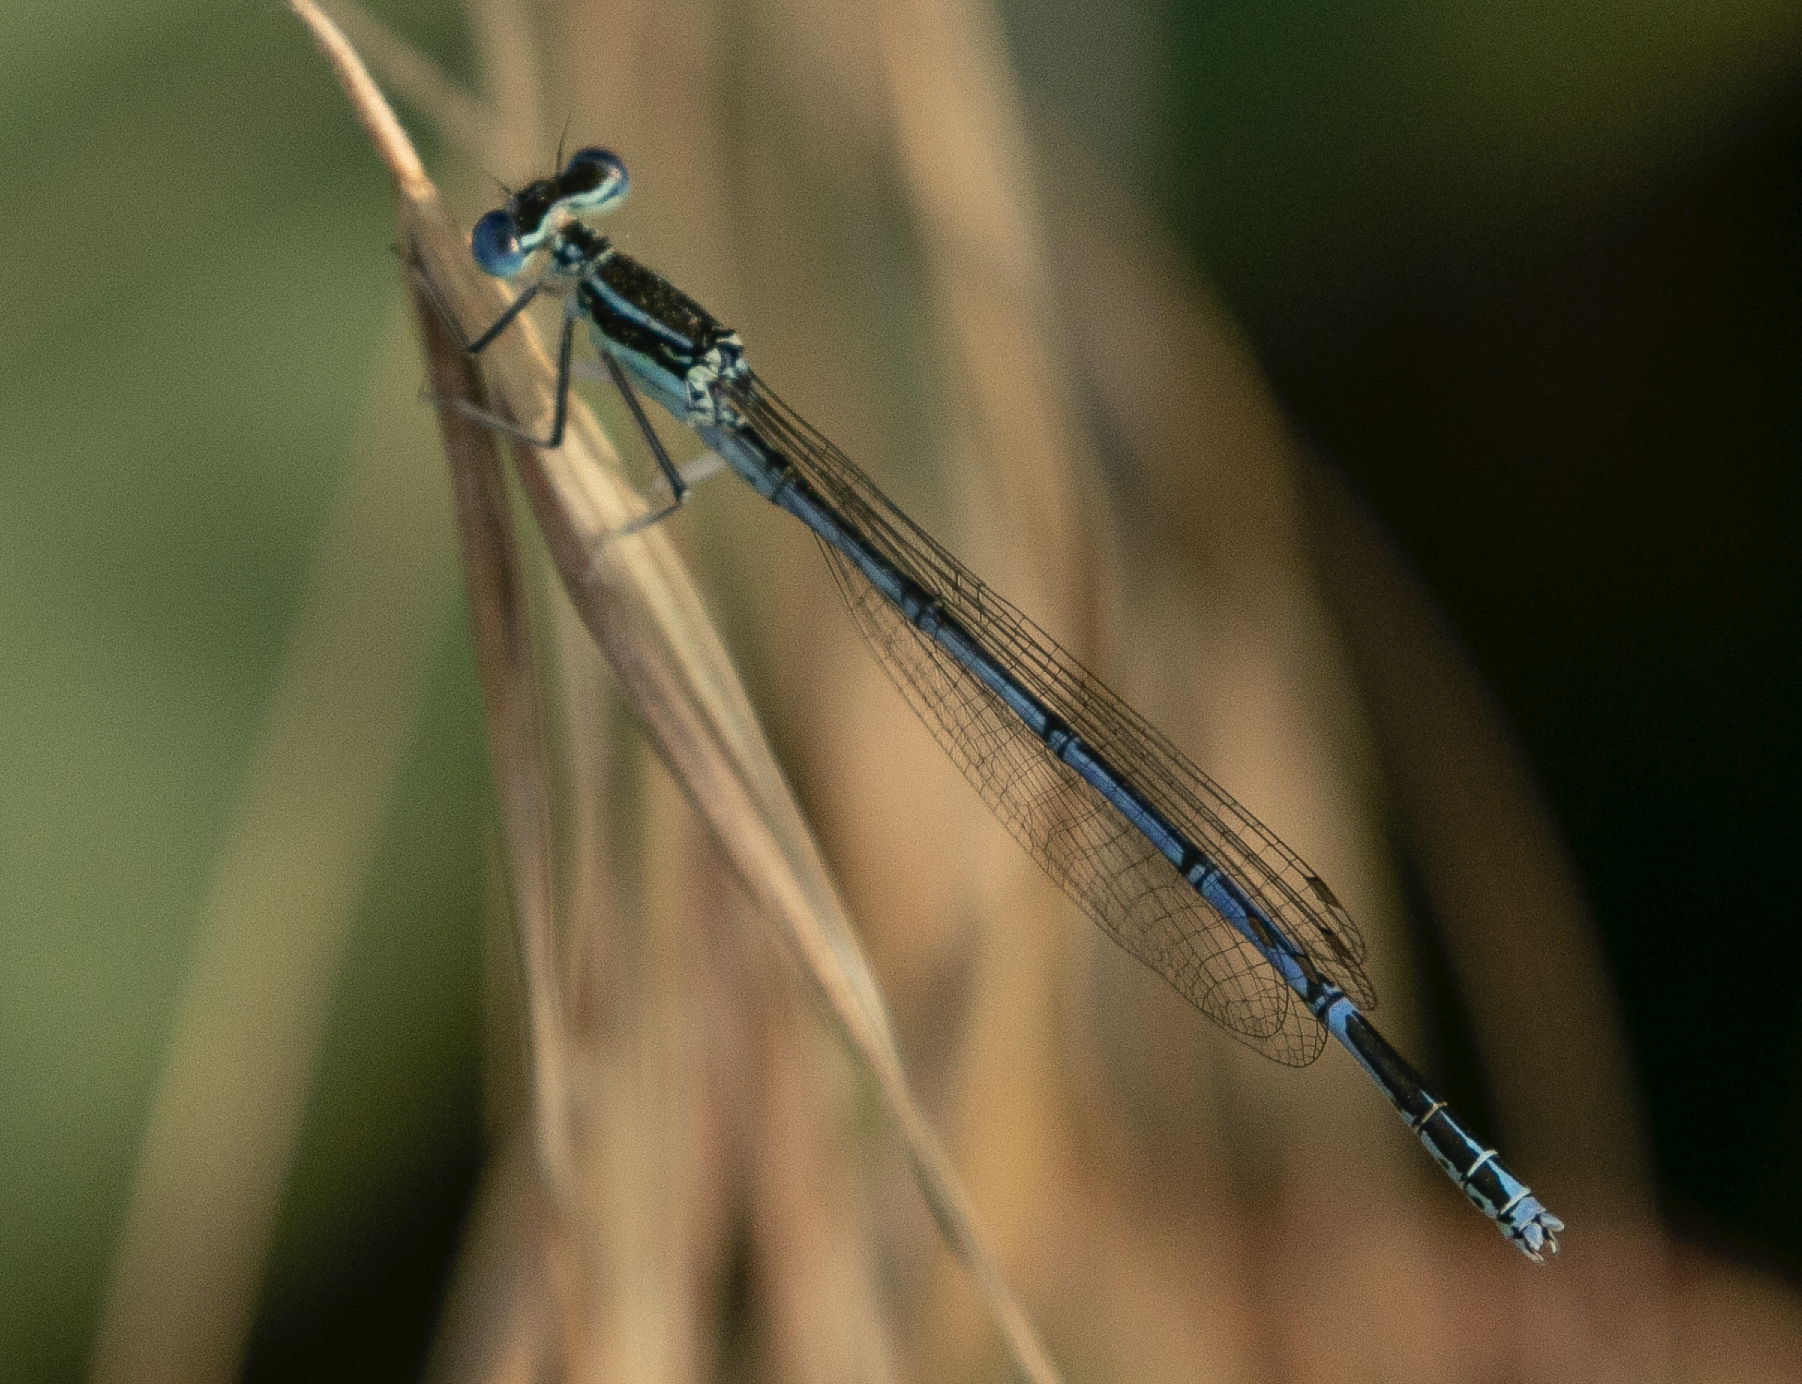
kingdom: Animalia
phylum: Arthropoda
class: Insecta
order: Odonata
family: Platycnemididae
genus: Platycnemis
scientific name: Platycnemis pennipes
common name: White-legged damselfly
